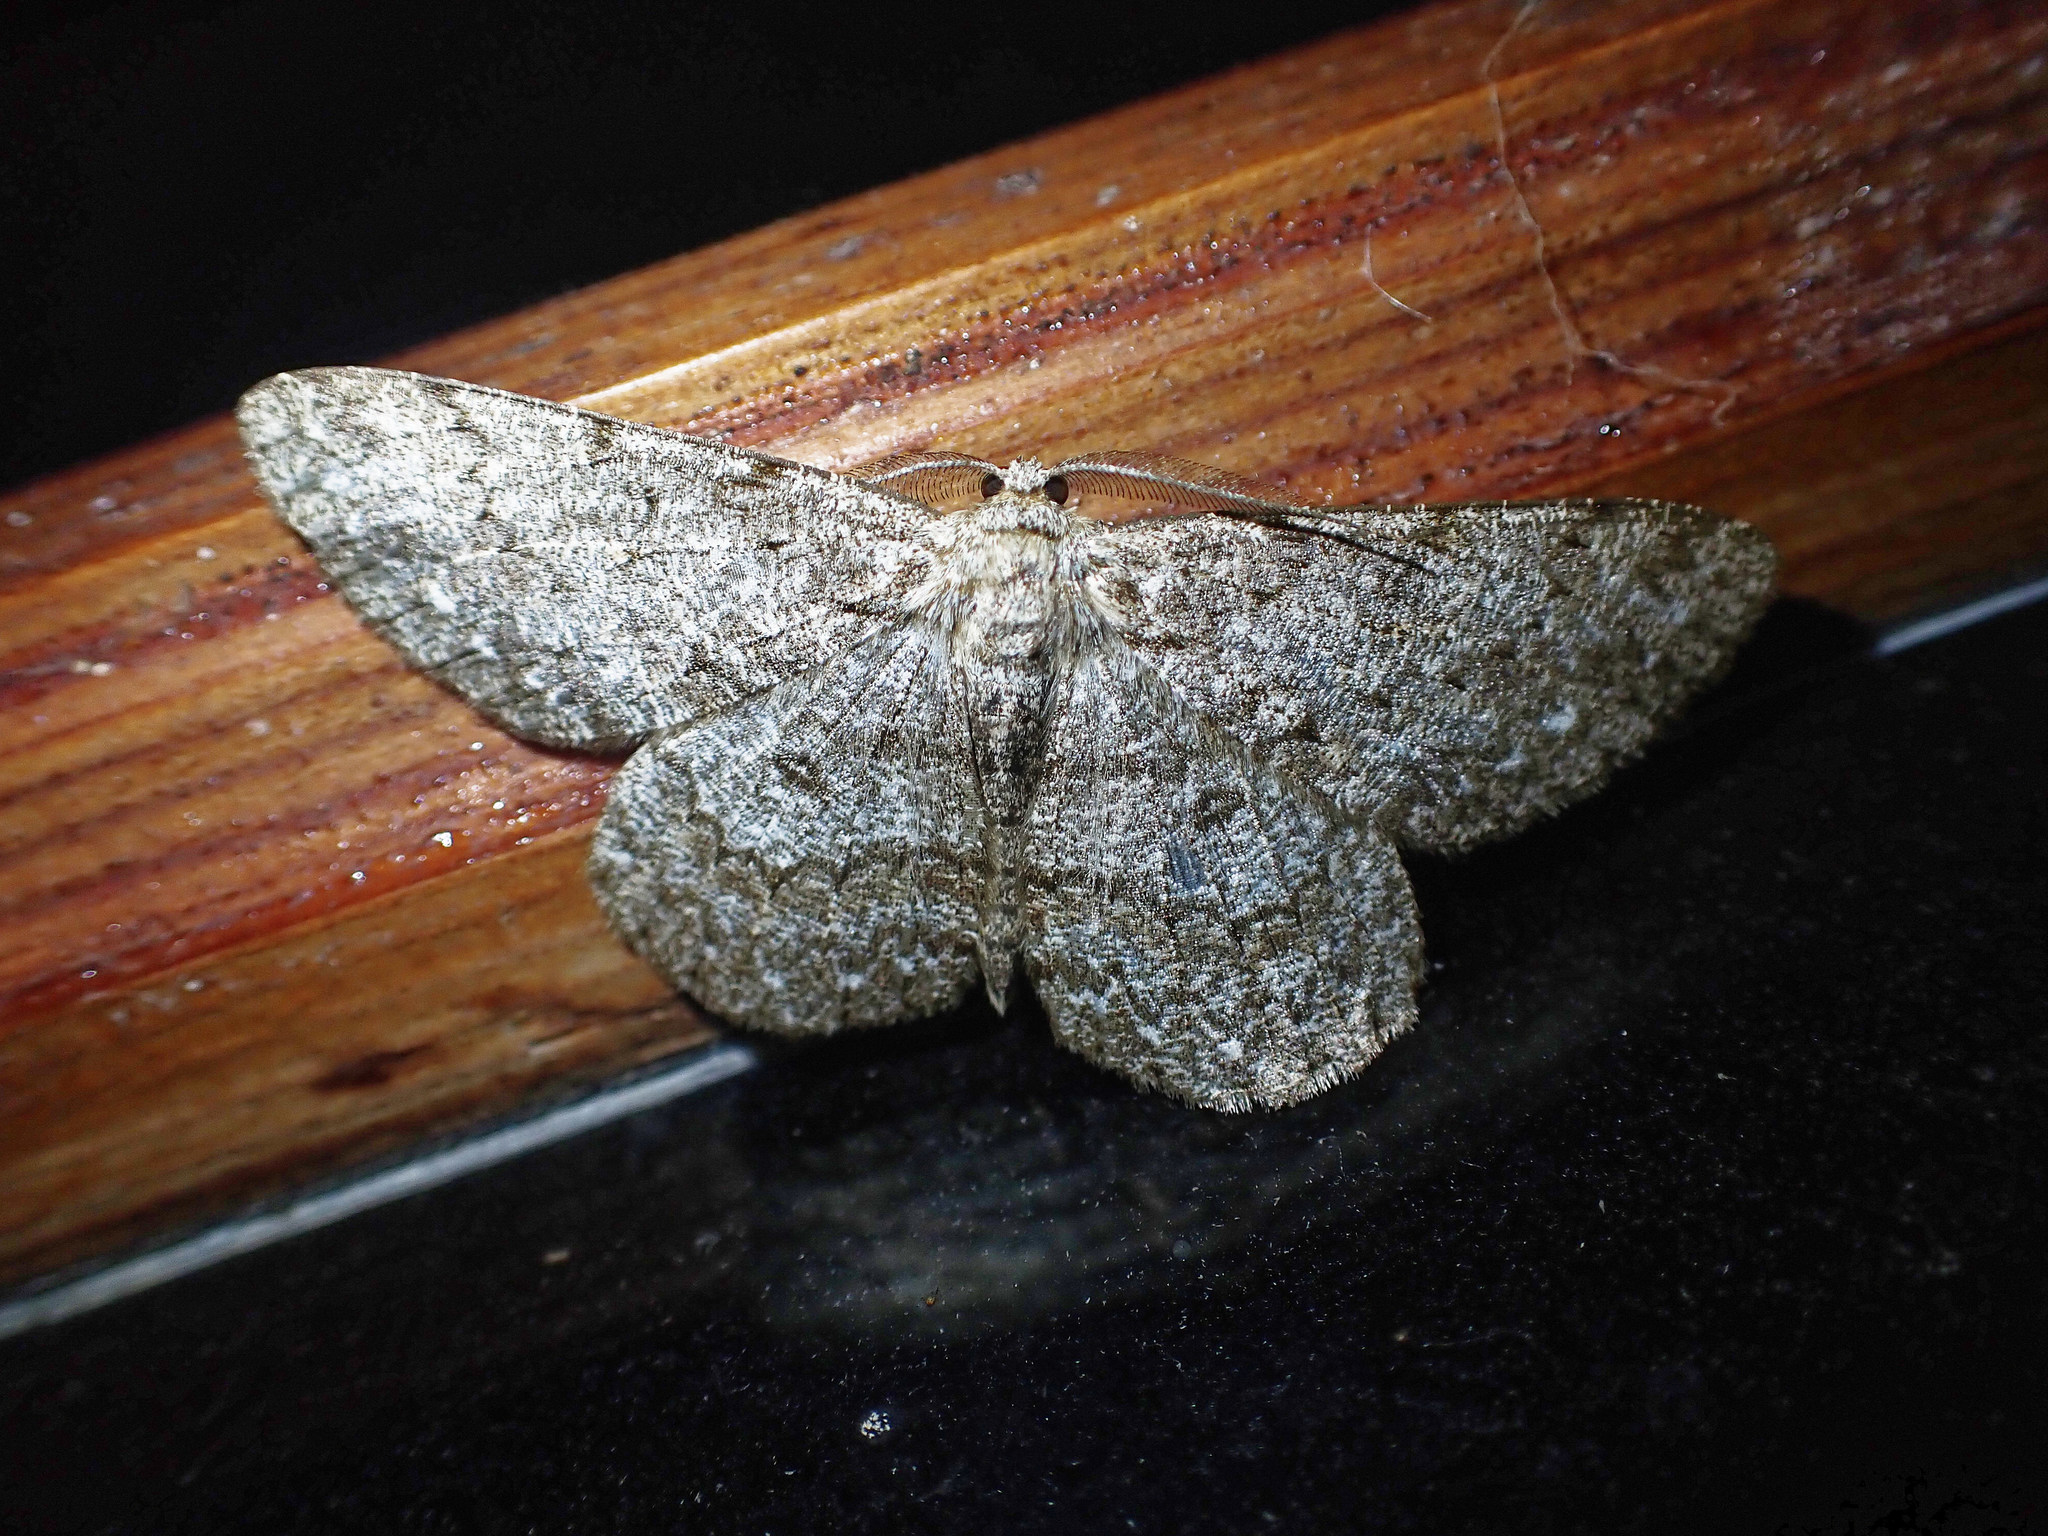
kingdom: Animalia
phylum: Arthropoda
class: Insecta
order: Lepidoptera
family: Geometridae
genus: Hypomecis
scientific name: Hypomecis punctinalis
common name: Pale oak beauty
